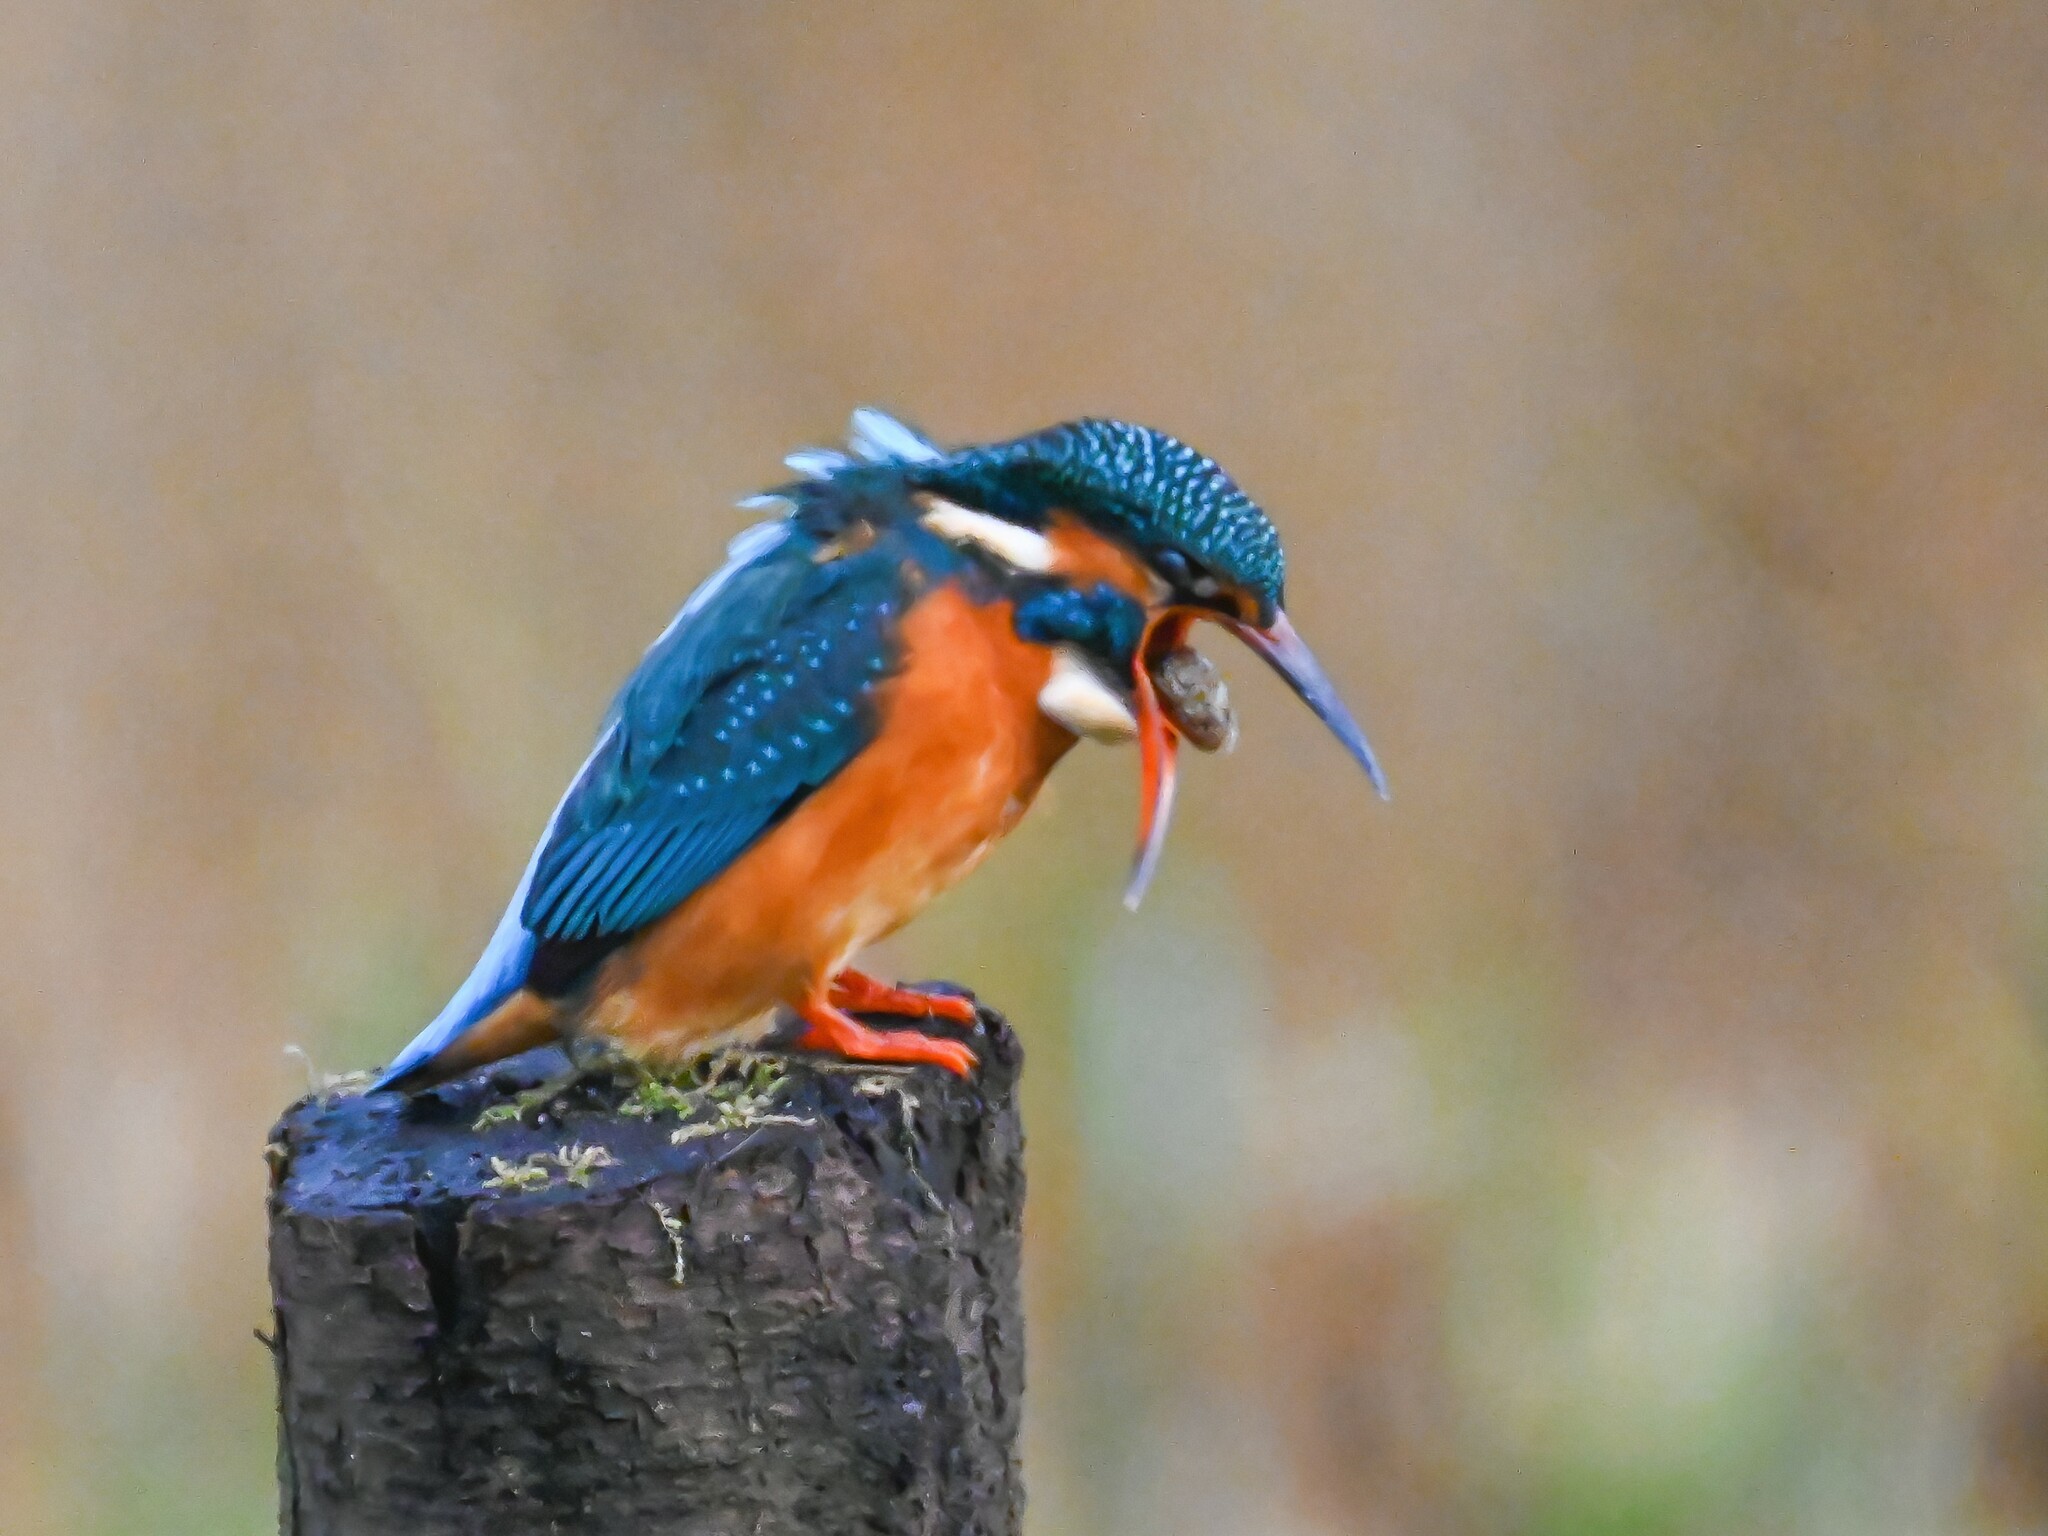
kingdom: Animalia
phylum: Chordata
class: Aves
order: Coraciiformes
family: Alcedinidae
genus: Alcedo
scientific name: Alcedo atthis
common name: Common kingfisher
